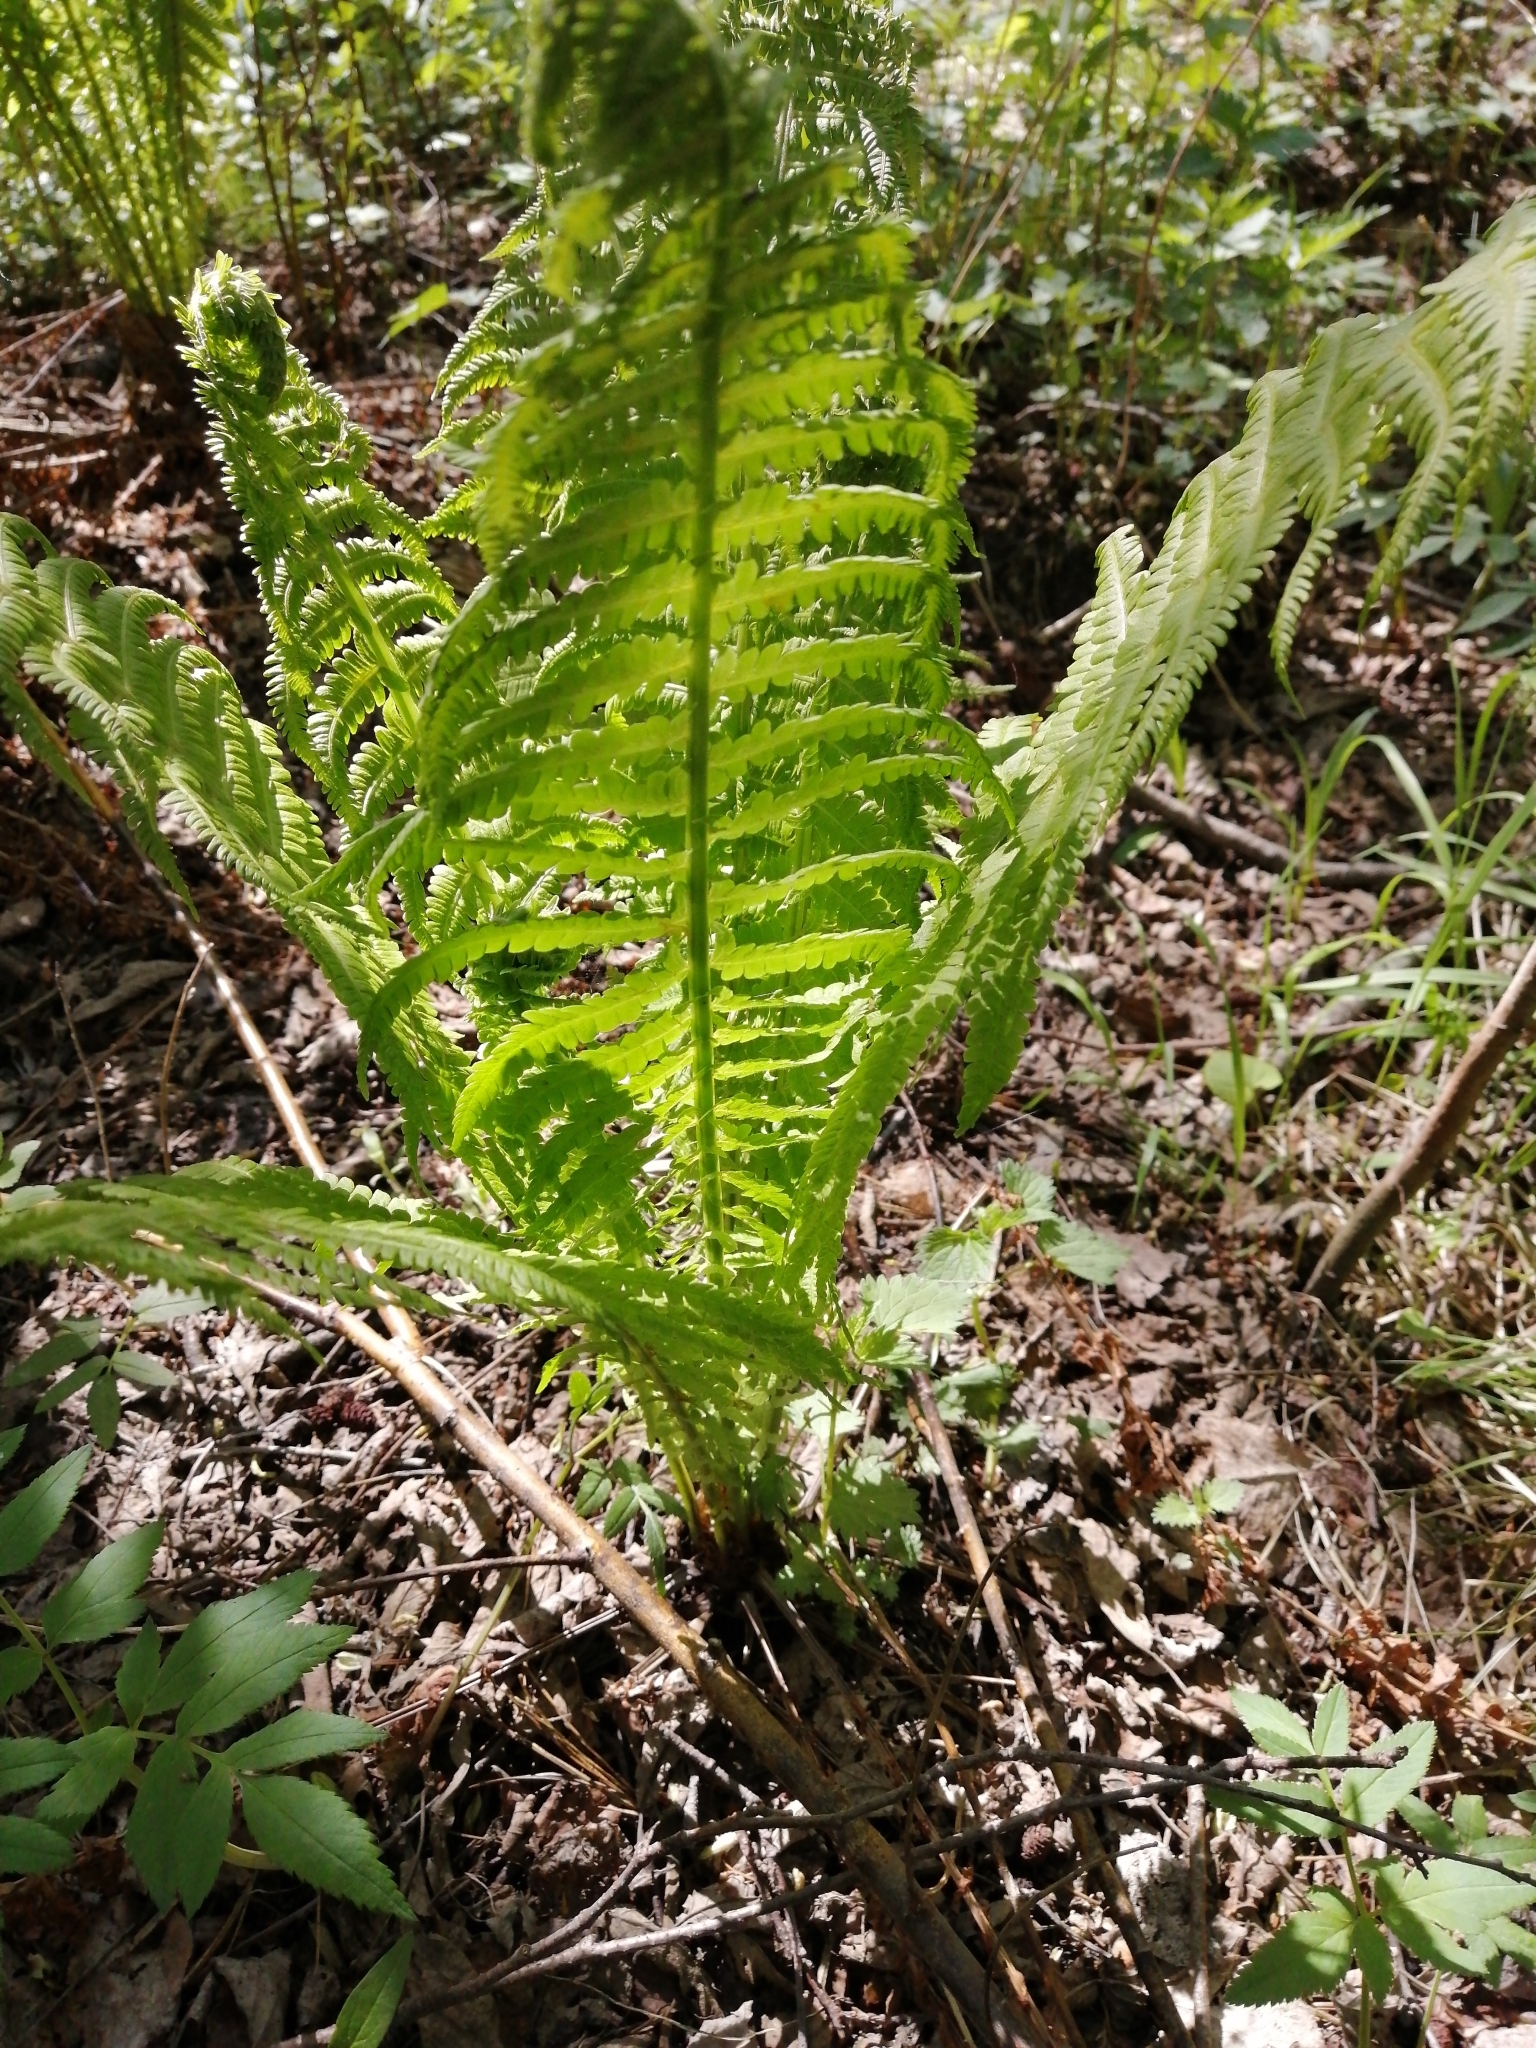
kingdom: Plantae
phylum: Tracheophyta
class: Polypodiopsida
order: Polypodiales
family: Onocleaceae
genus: Matteuccia
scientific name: Matteuccia struthiopteris
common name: Ostrich fern
